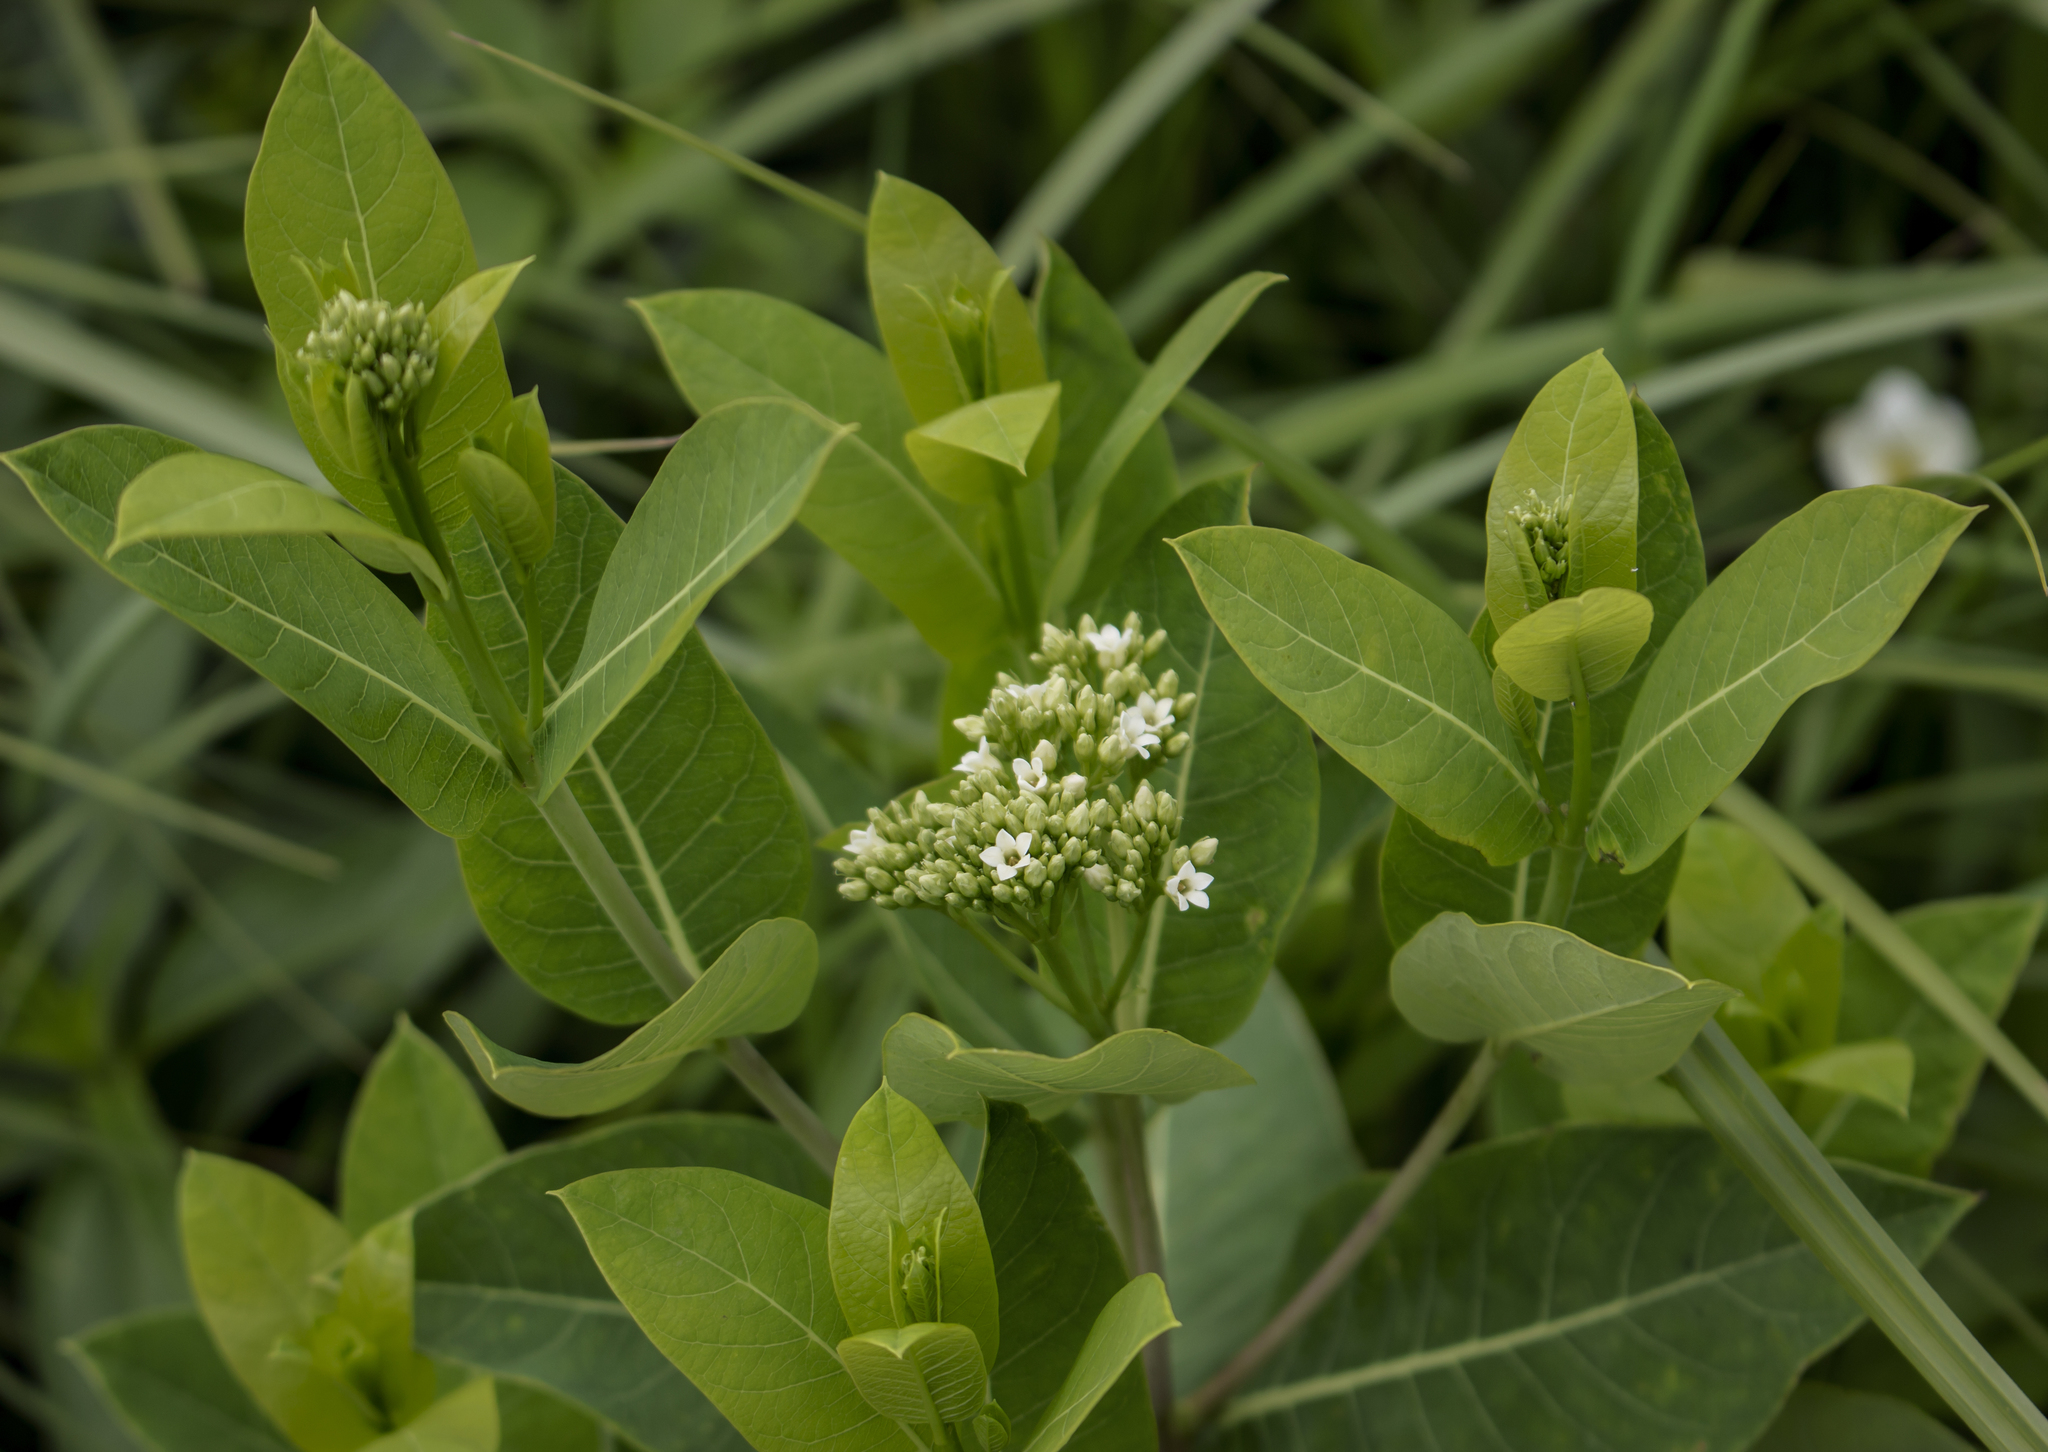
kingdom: Plantae
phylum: Tracheophyta
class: Magnoliopsida
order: Gentianales
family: Apocynaceae
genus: Apocynum
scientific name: Apocynum cannabinum
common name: Hemp dogbane
